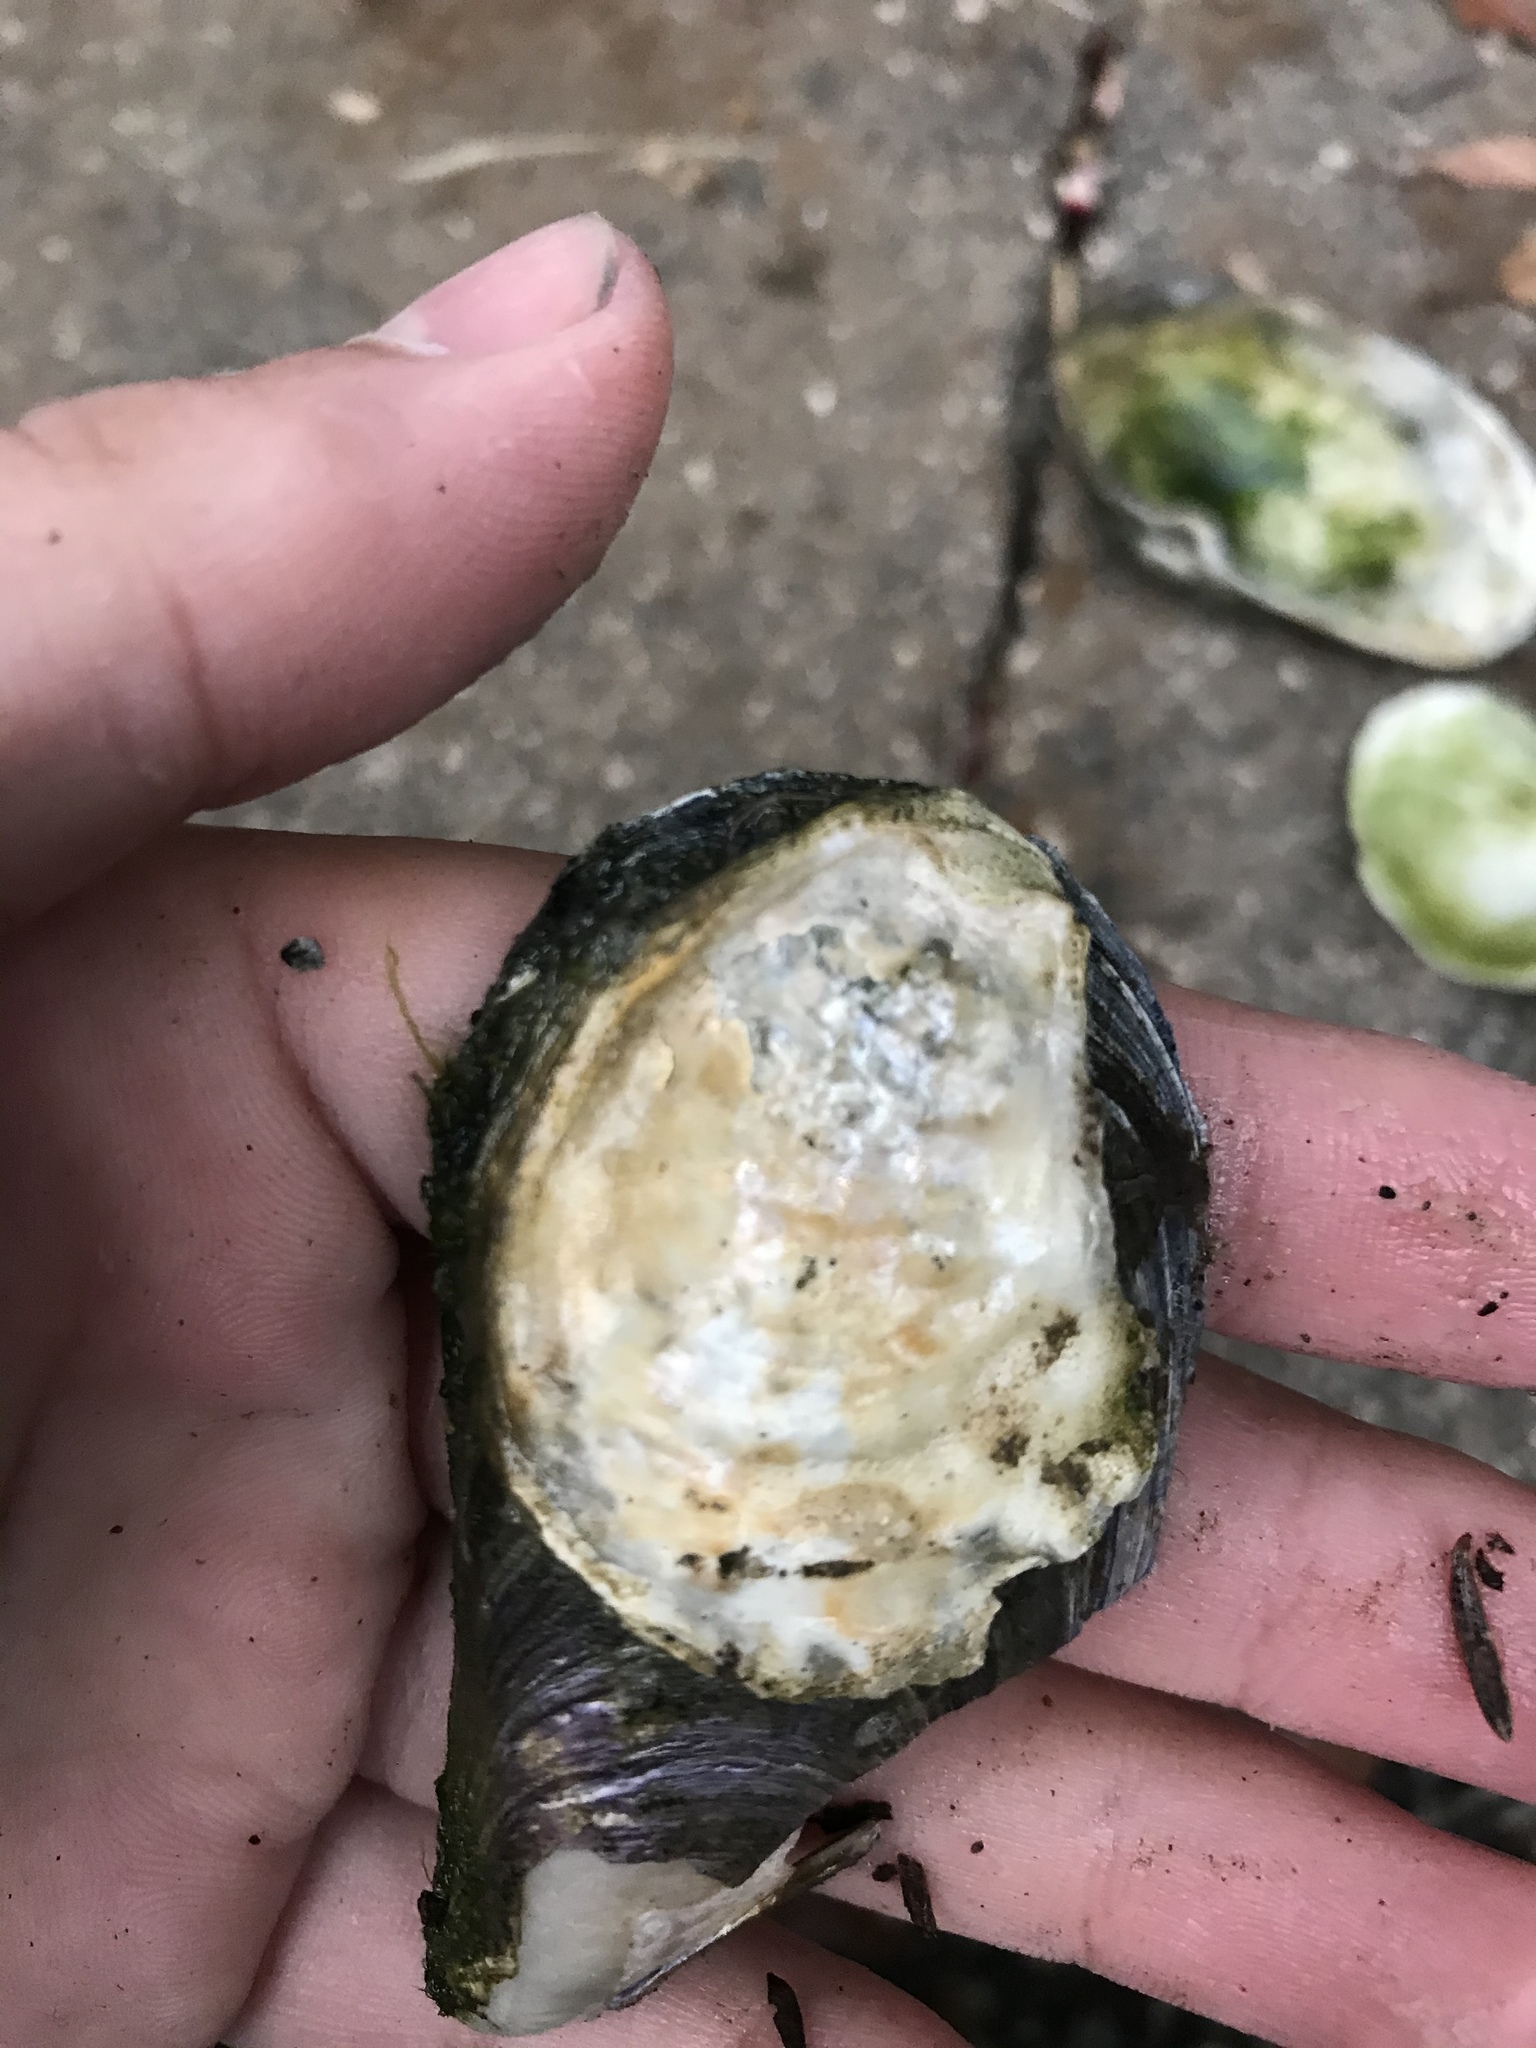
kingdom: Animalia
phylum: Mollusca
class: Bivalvia
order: Ostreida
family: Ostreidae
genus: Ostrea
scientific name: Ostrea lurida
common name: Olympia flat oyster
